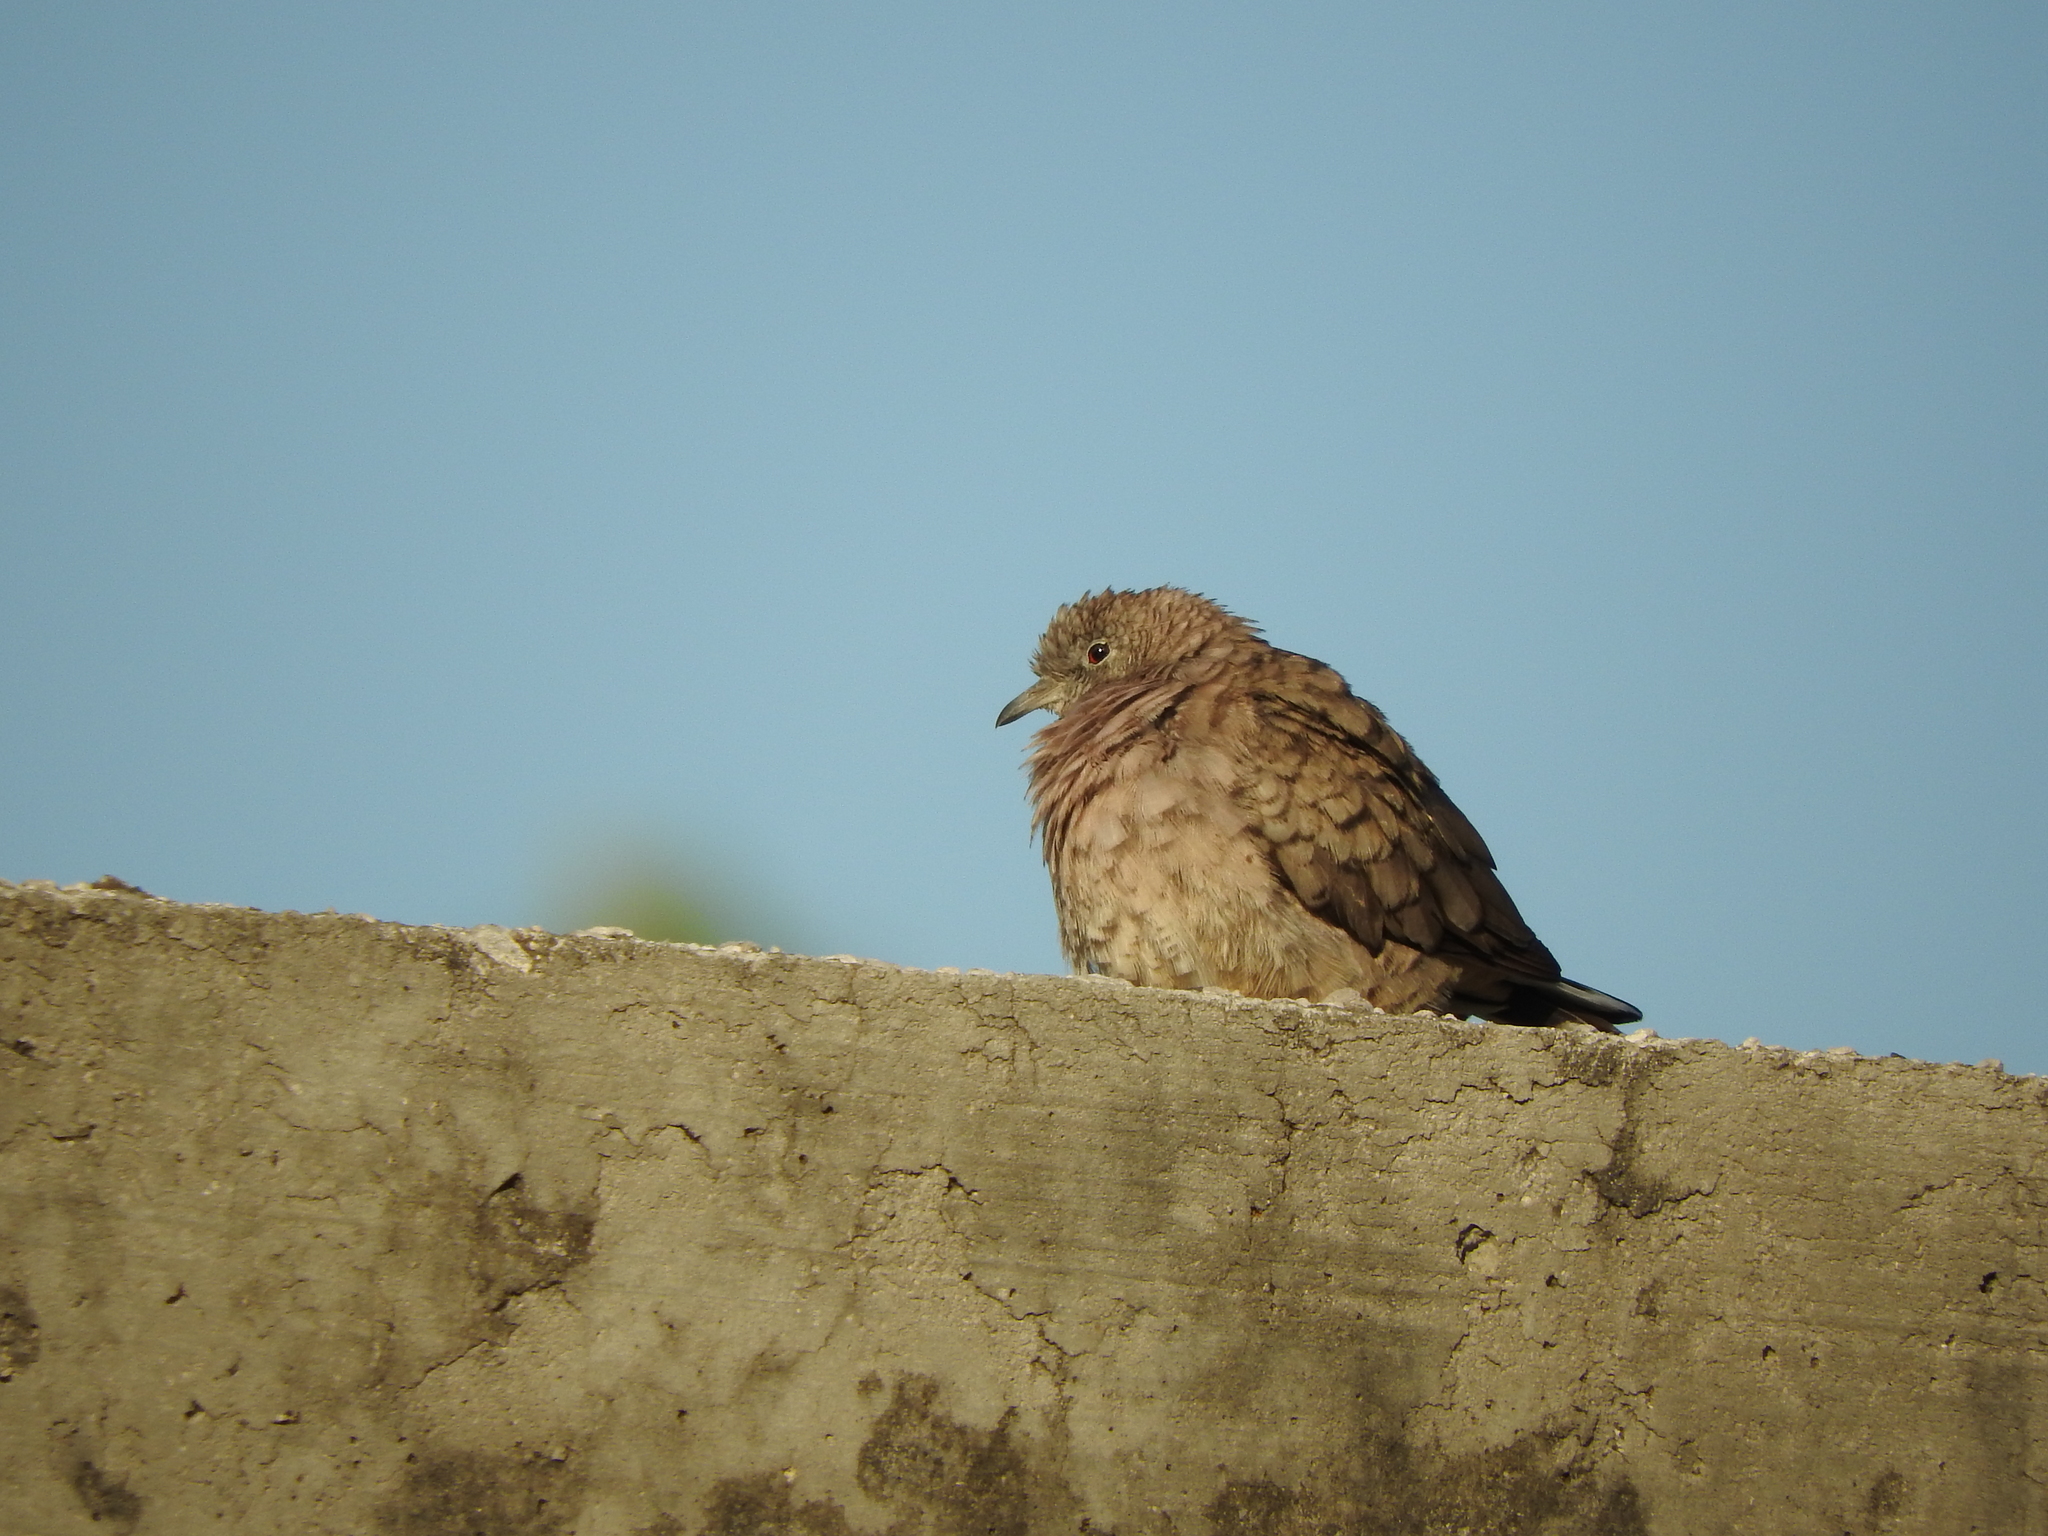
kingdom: Animalia
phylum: Chordata
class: Aves
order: Columbiformes
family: Columbidae
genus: Columbina
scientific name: Columbina inca
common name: Inca dove
